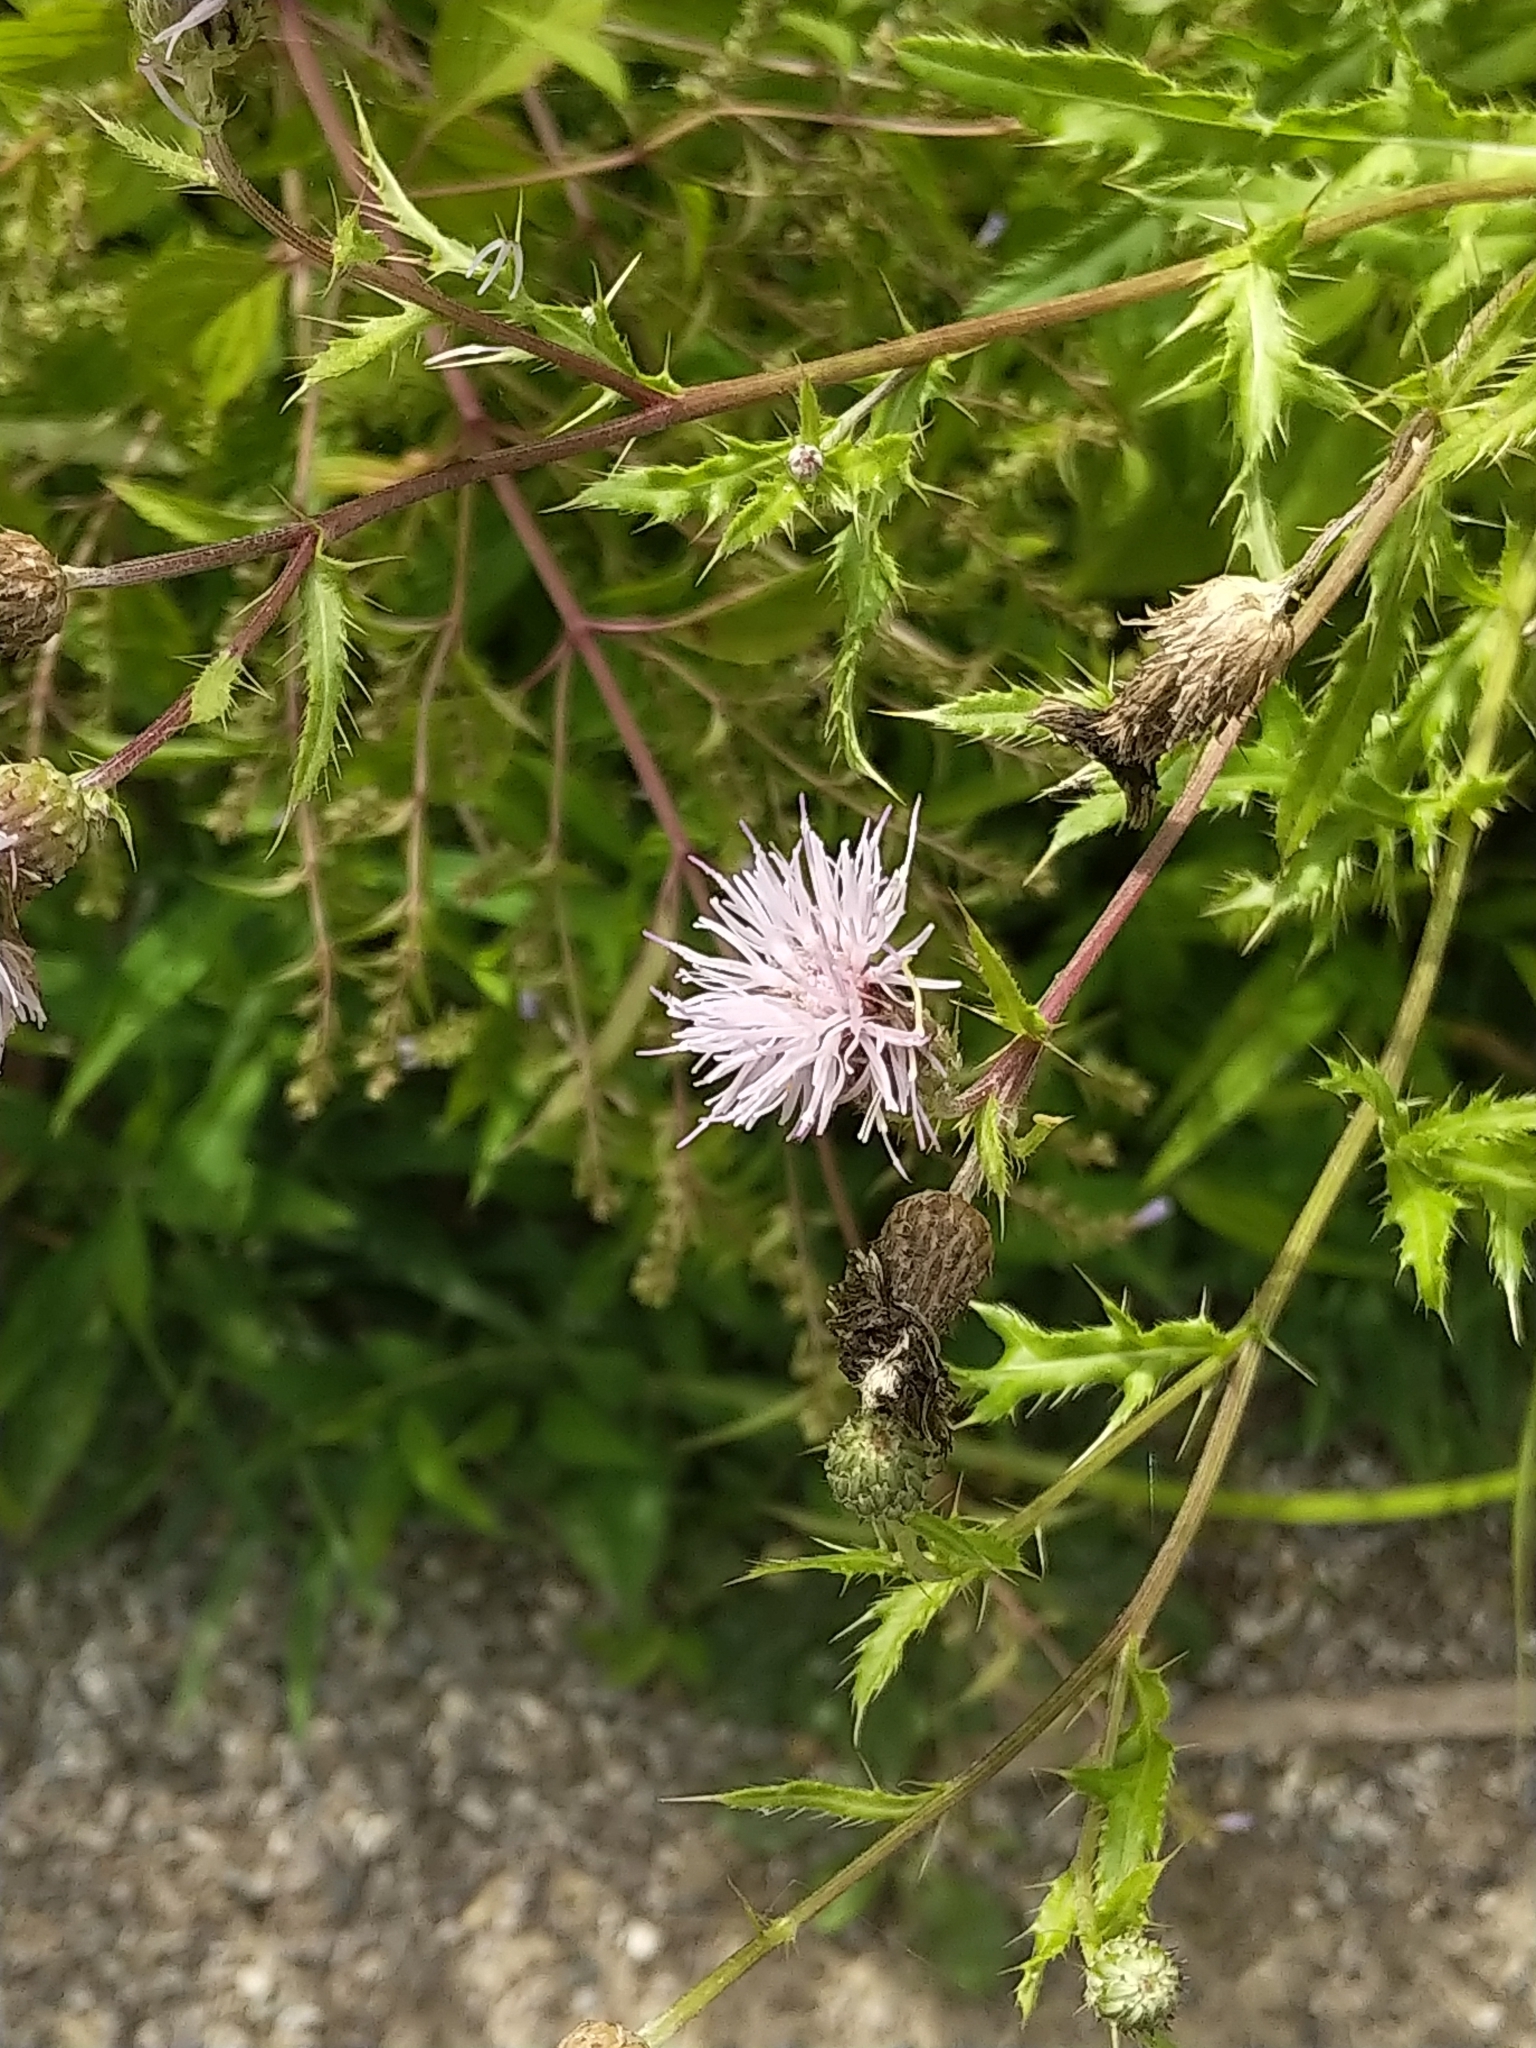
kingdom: Plantae
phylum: Tracheophyta
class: Magnoliopsida
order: Asterales
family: Asteraceae
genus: Cirsium
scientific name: Cirsium arvense
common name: Creeping thistle
